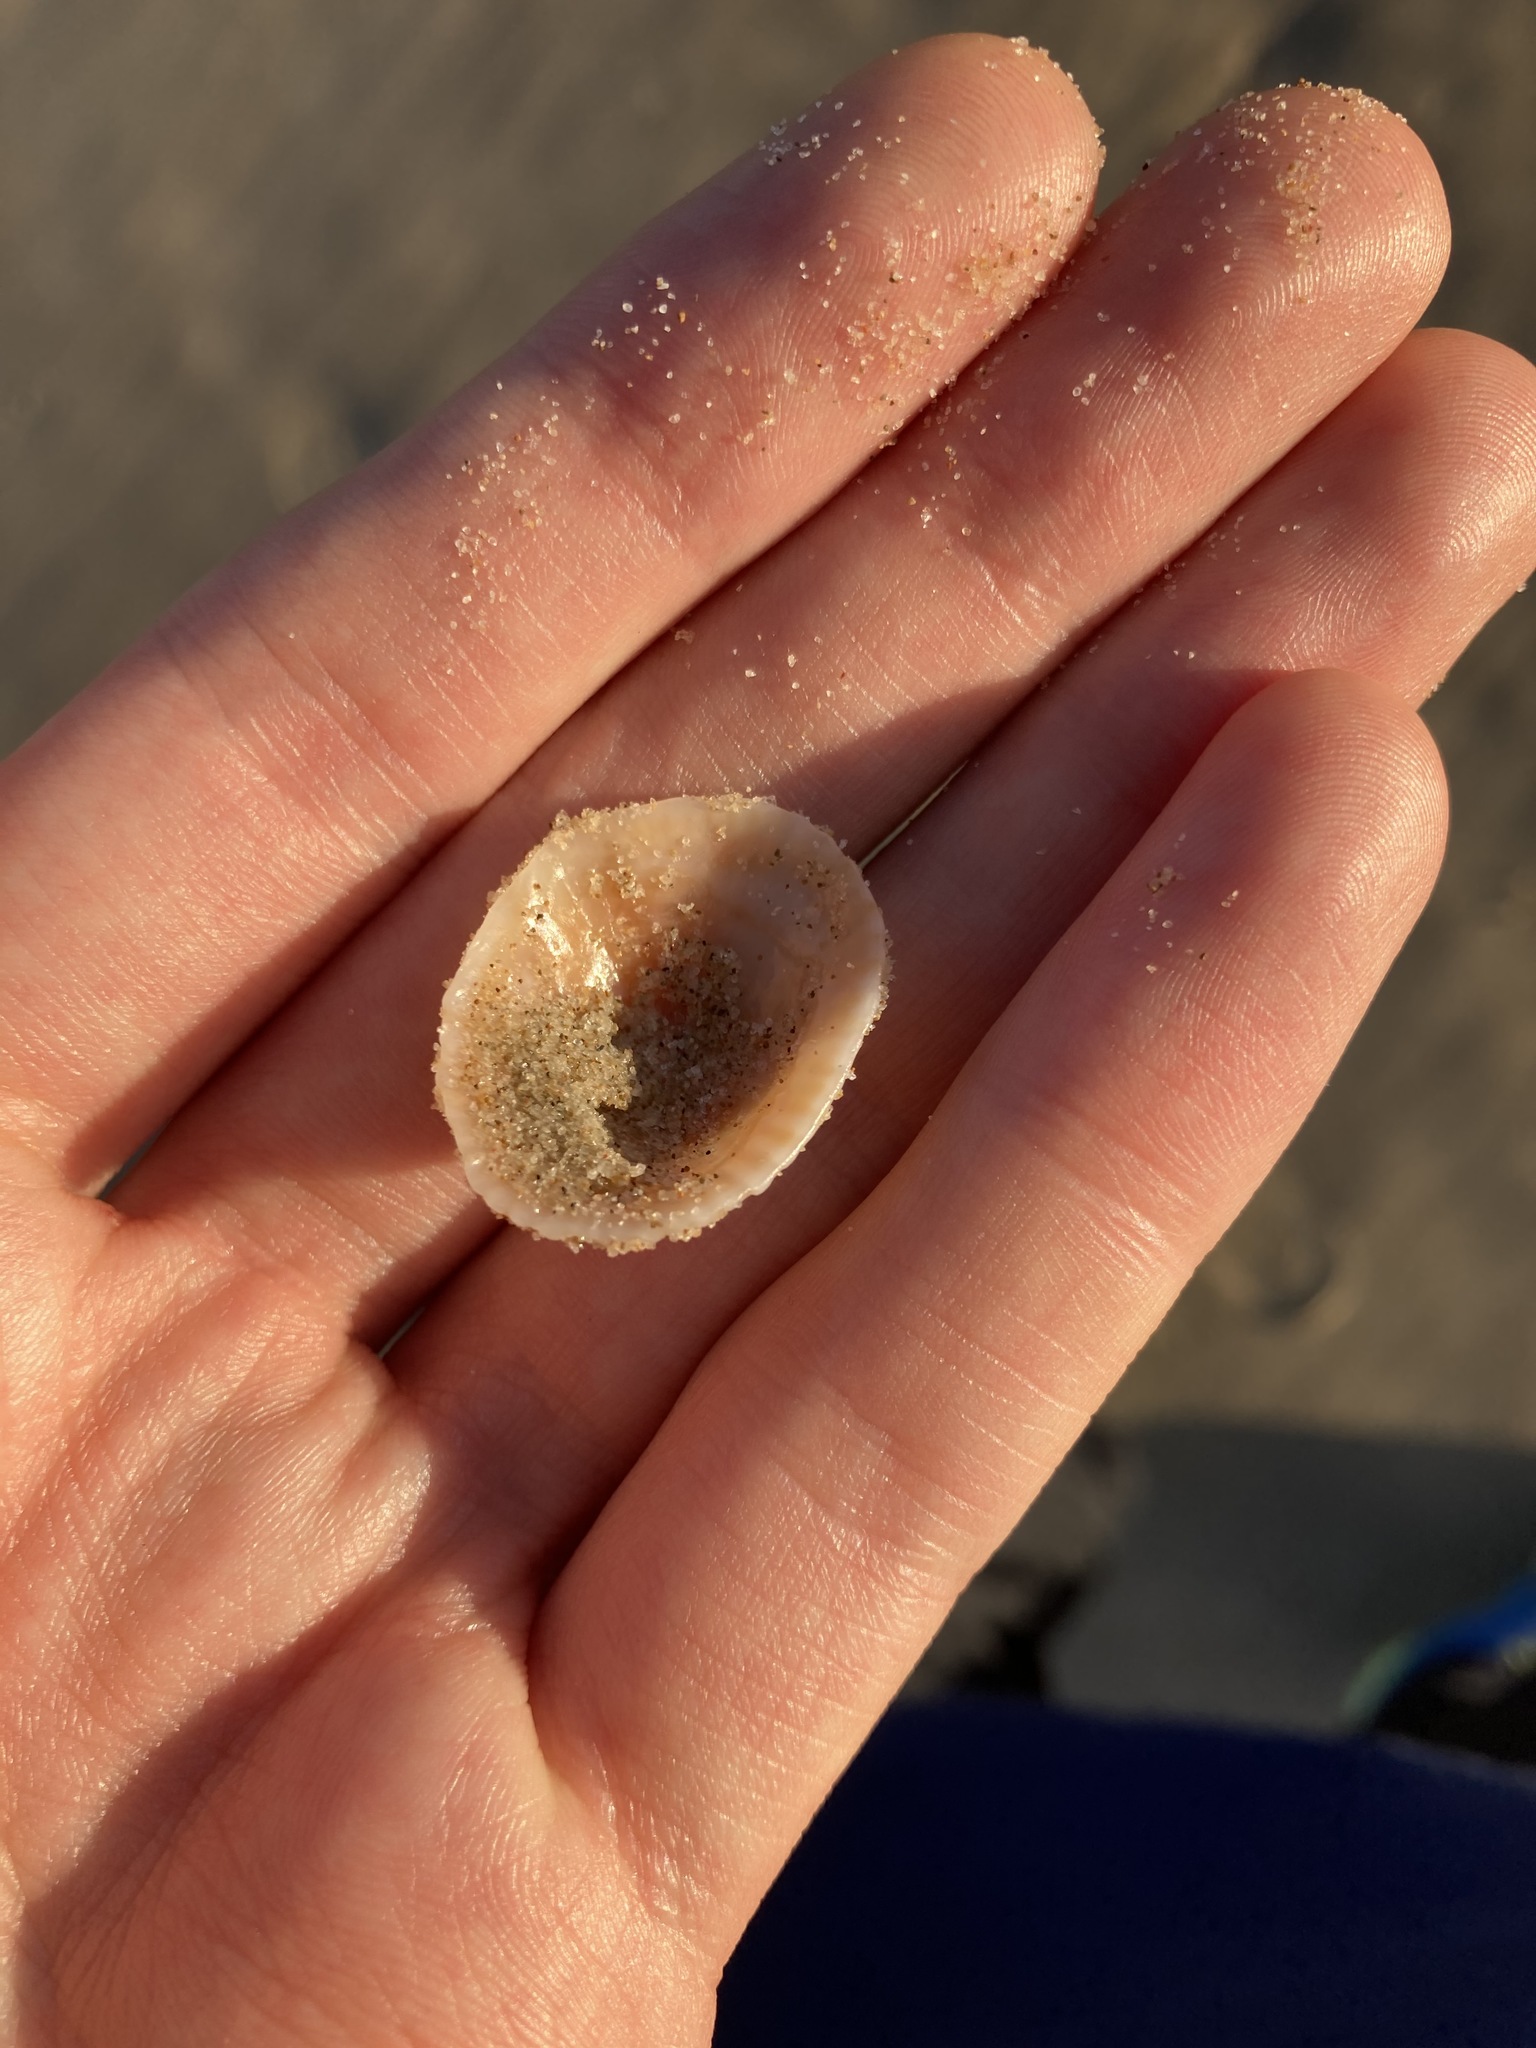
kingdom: Animalia
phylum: Mollusca
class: Gastropoda
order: Siphonariida
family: Siphonariidae
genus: Siphonaria
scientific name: Siphonaria funiculata
